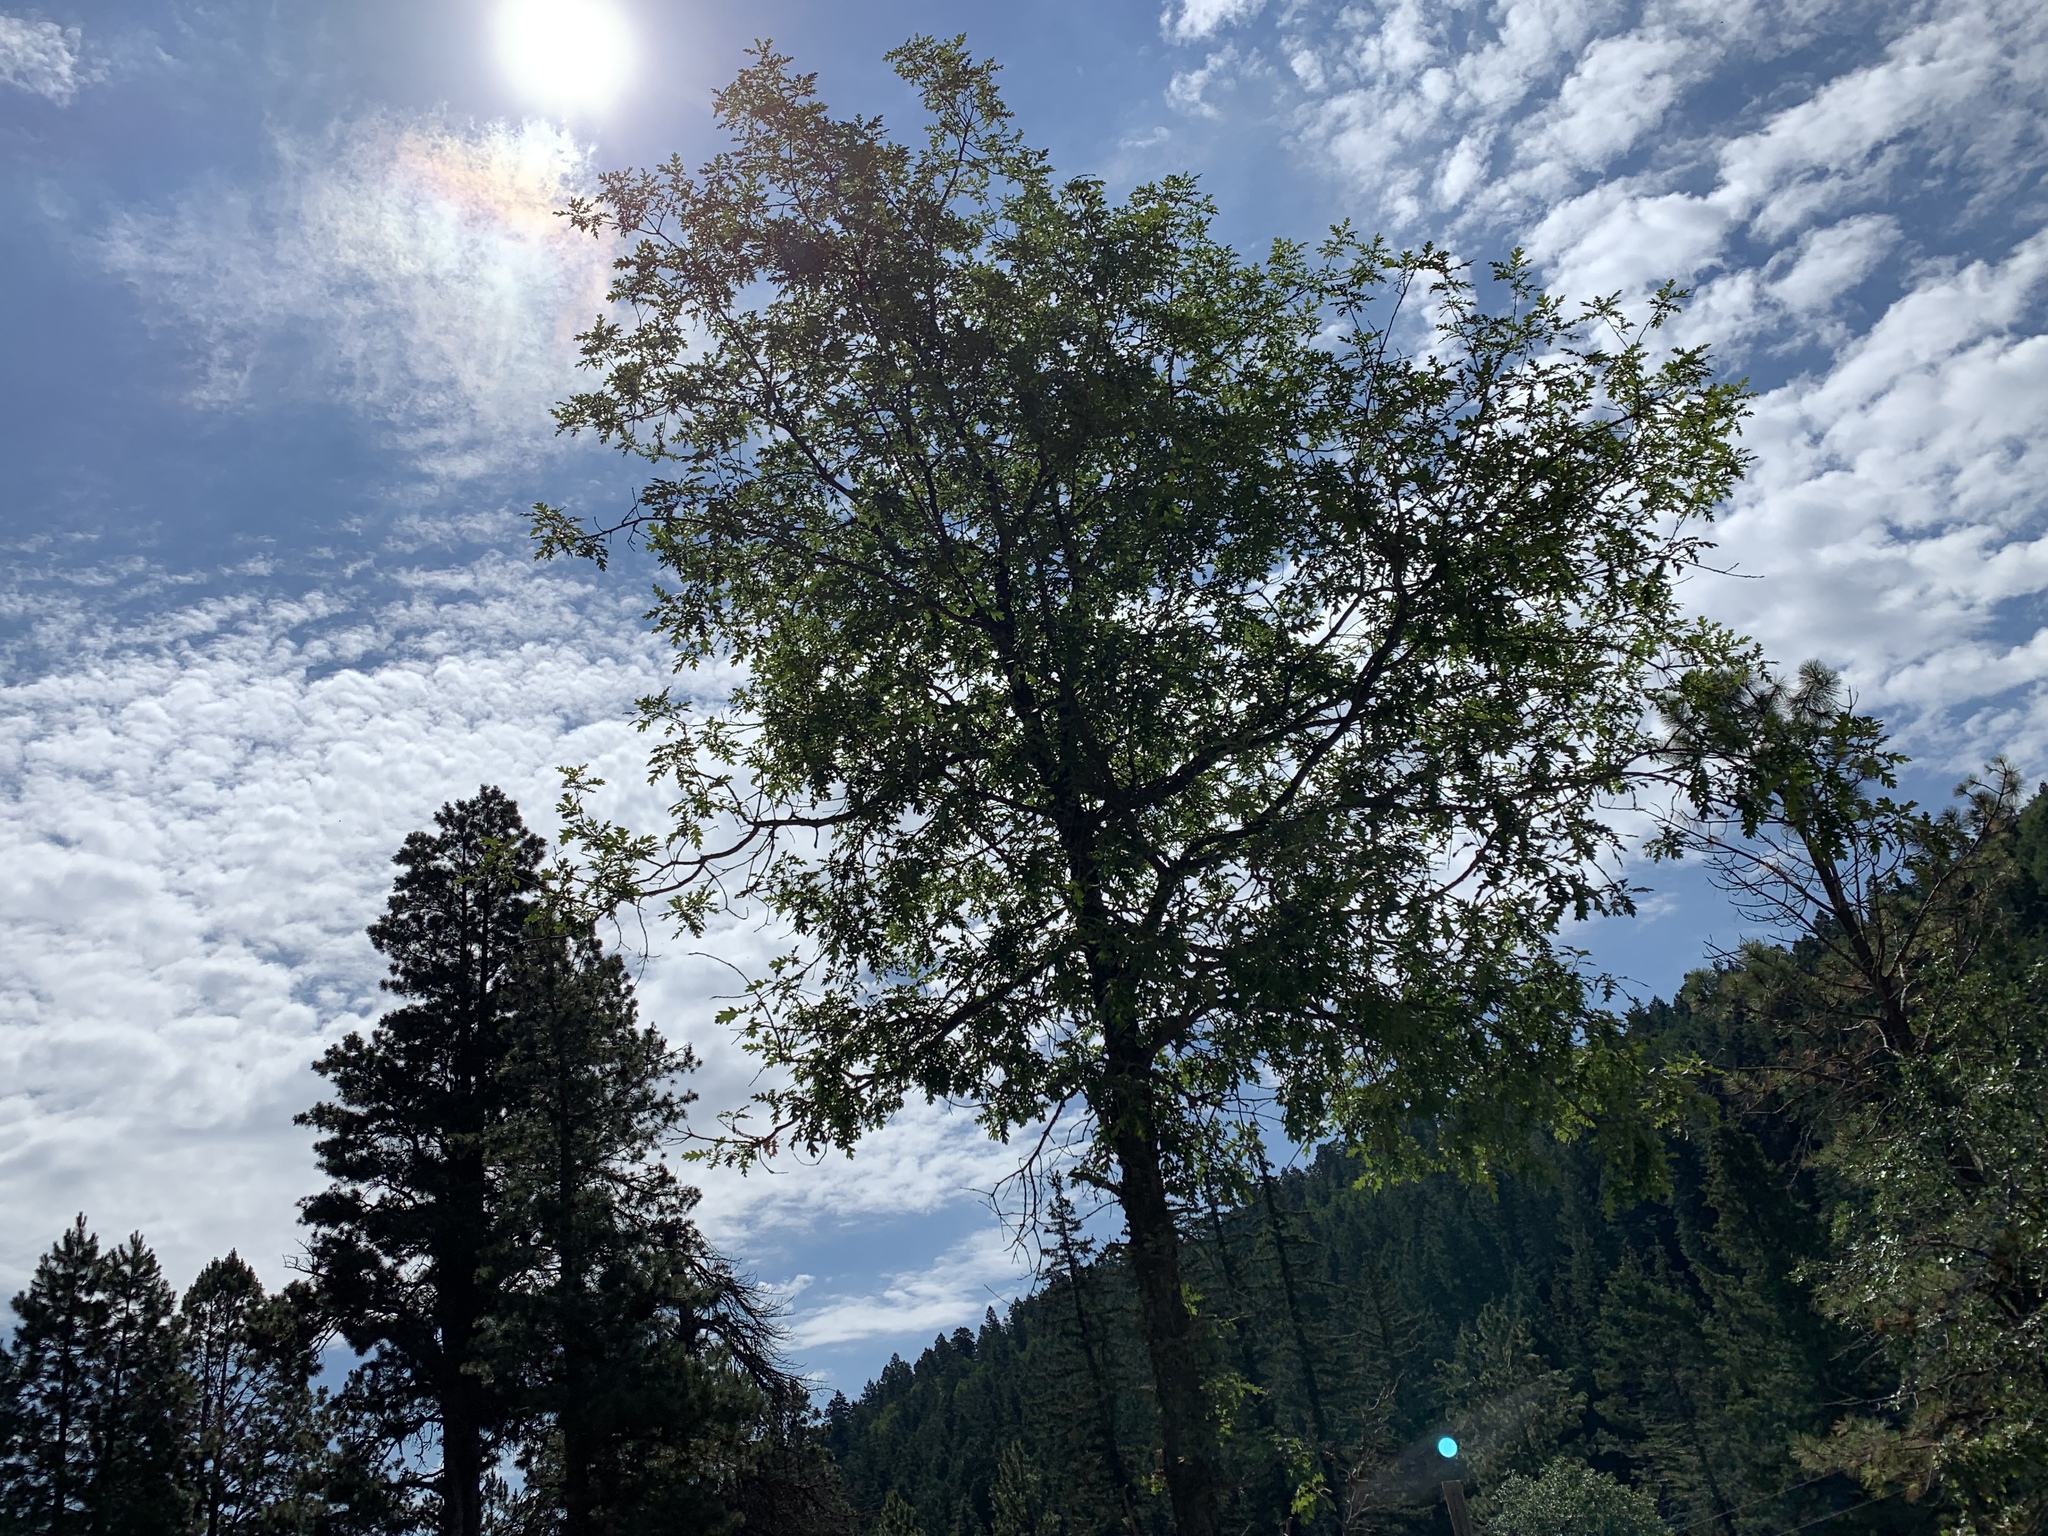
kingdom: Plantae
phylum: Tracheophyta
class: Magnoliopsida
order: Fagales
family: Fagaceae
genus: Quercus
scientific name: Quercus gambelii
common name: Gambel oak
